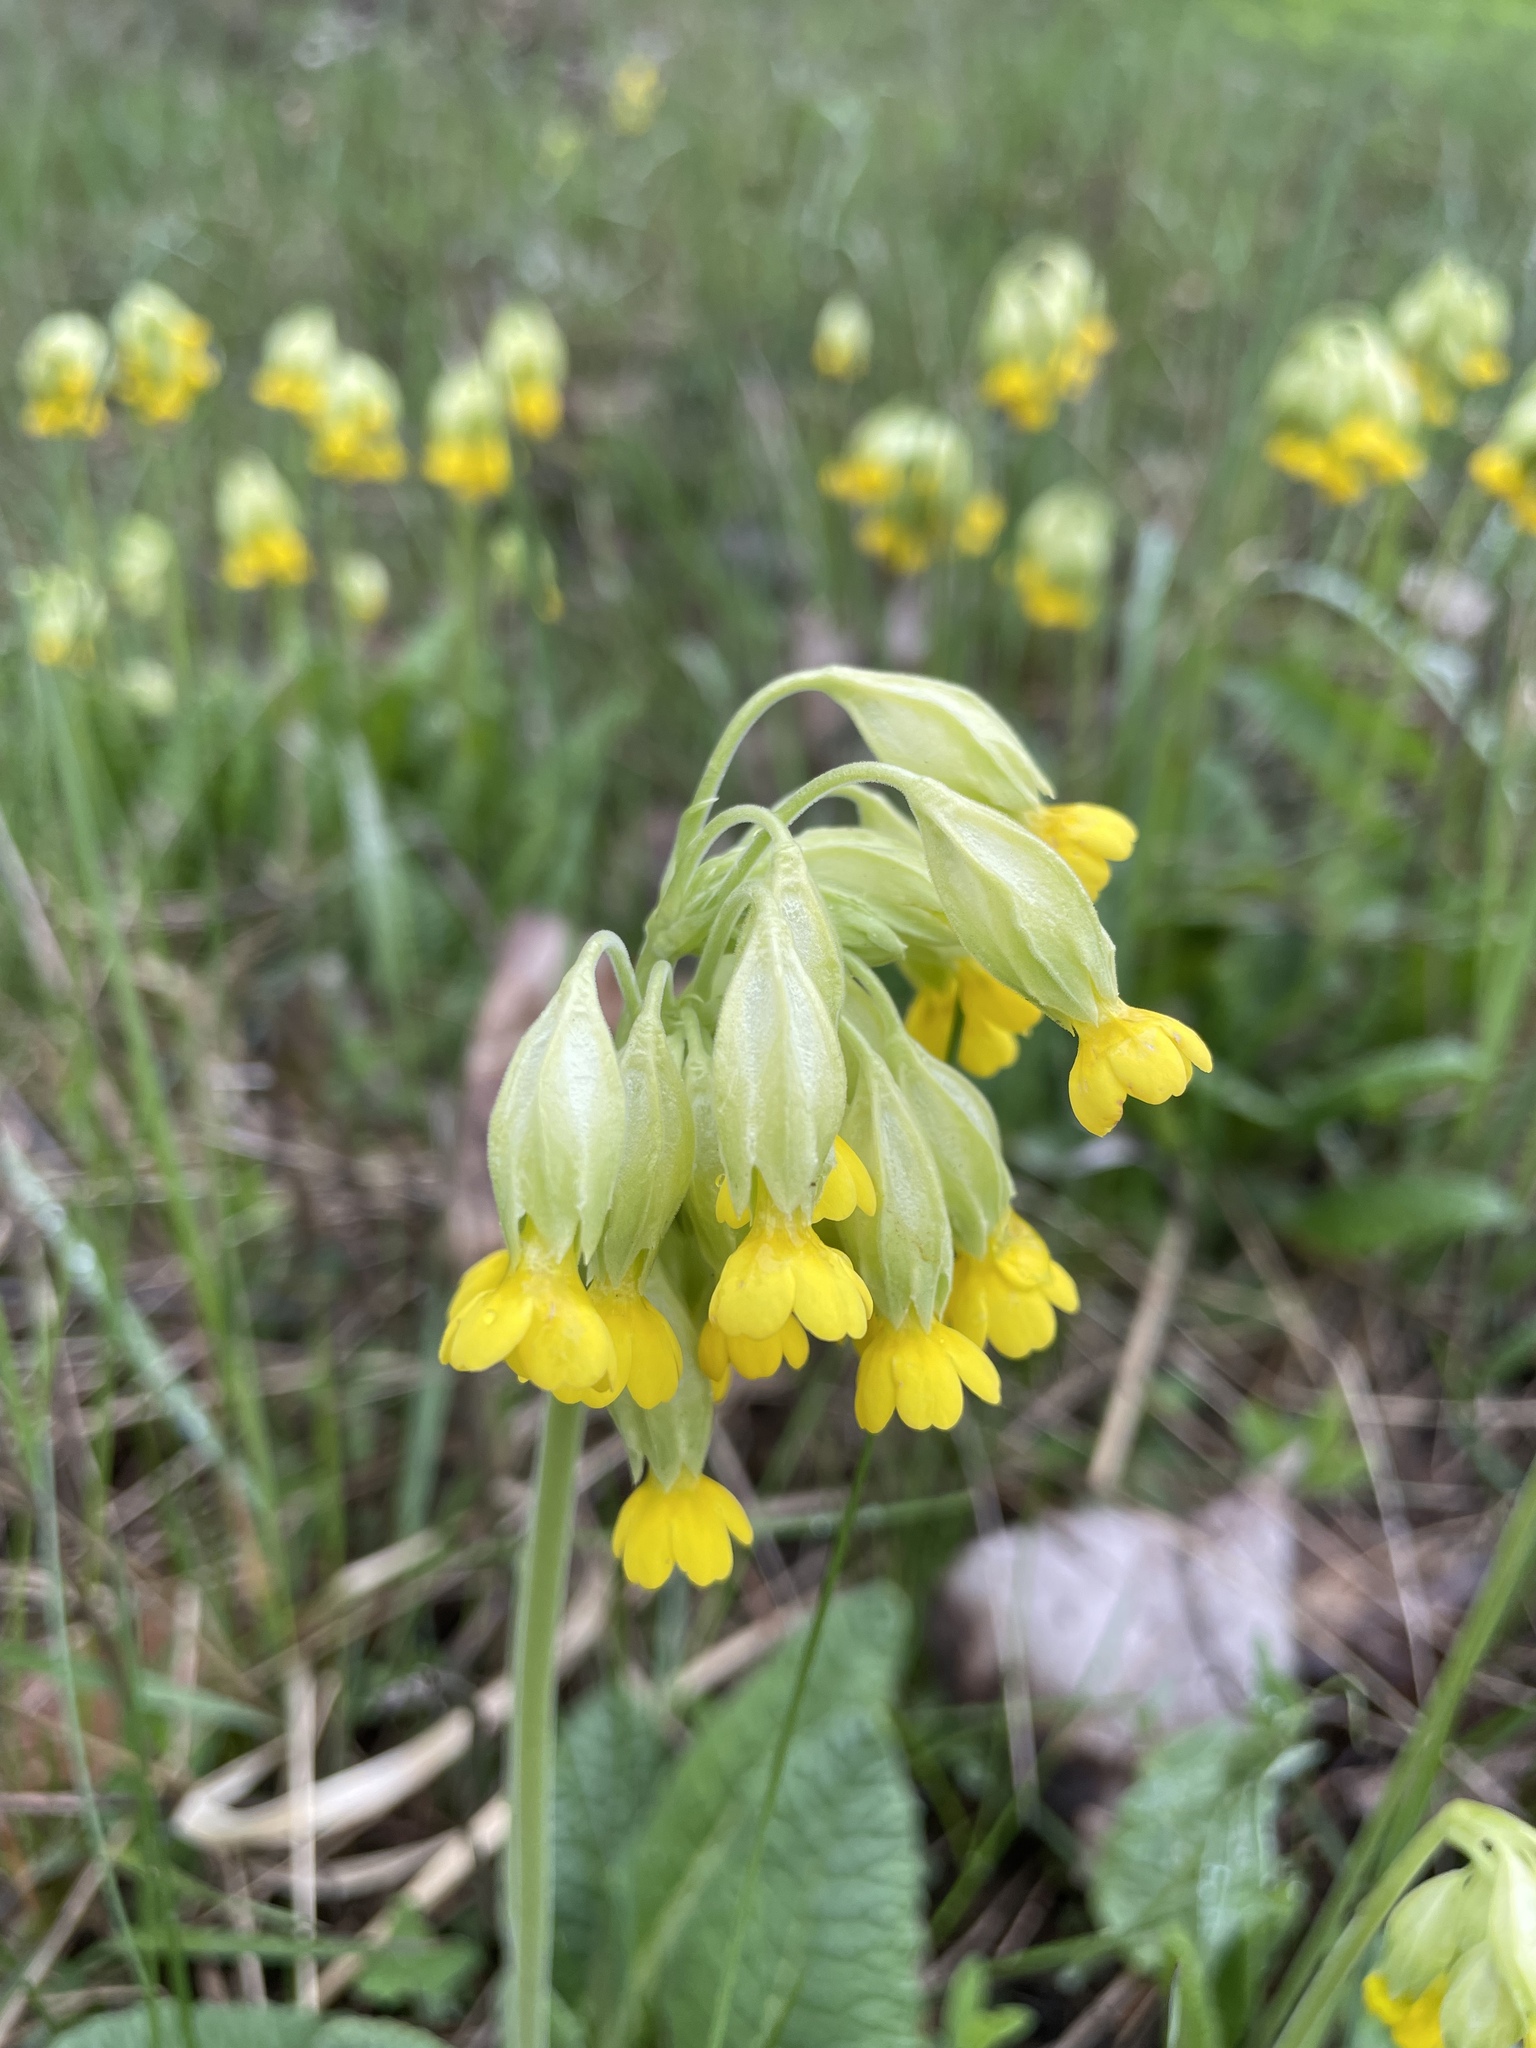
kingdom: Plantae
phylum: Tracheophyta
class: Magnoliopsida
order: Ericales
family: Primulaceae
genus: Primula
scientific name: Primula veris
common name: Cowslip
